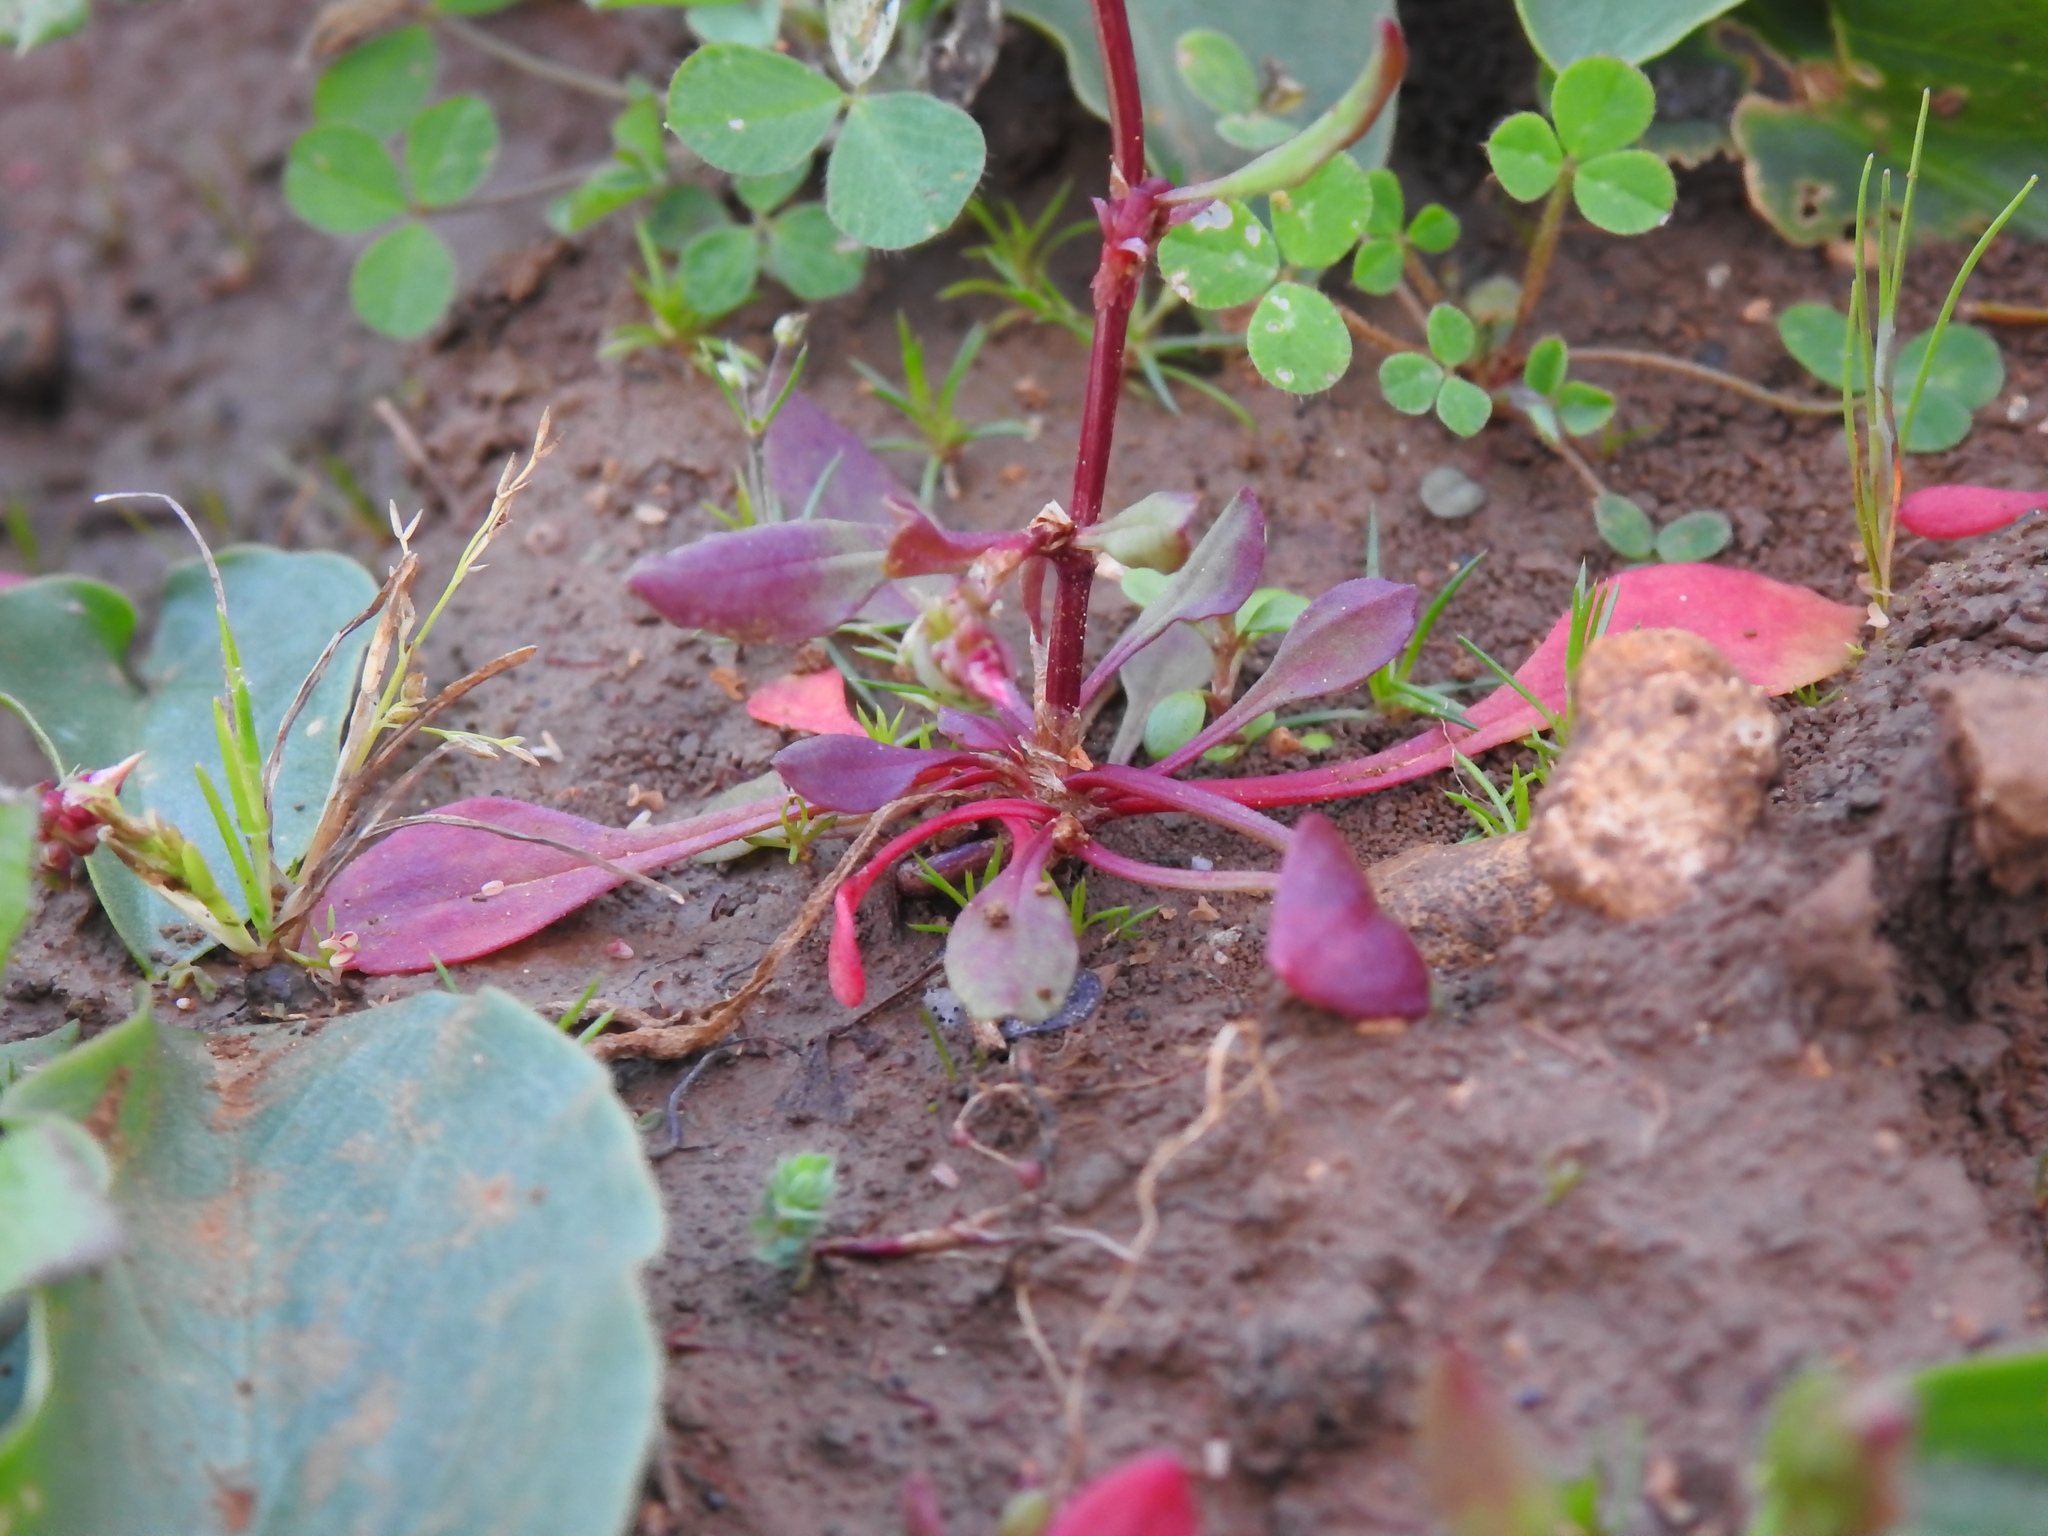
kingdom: Plantae
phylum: Tracheophyta
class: Magnoliopsida
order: Caryophyllales
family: Polygonaceae
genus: Rumex
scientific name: Rumex bucephalophorus
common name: Red dock
